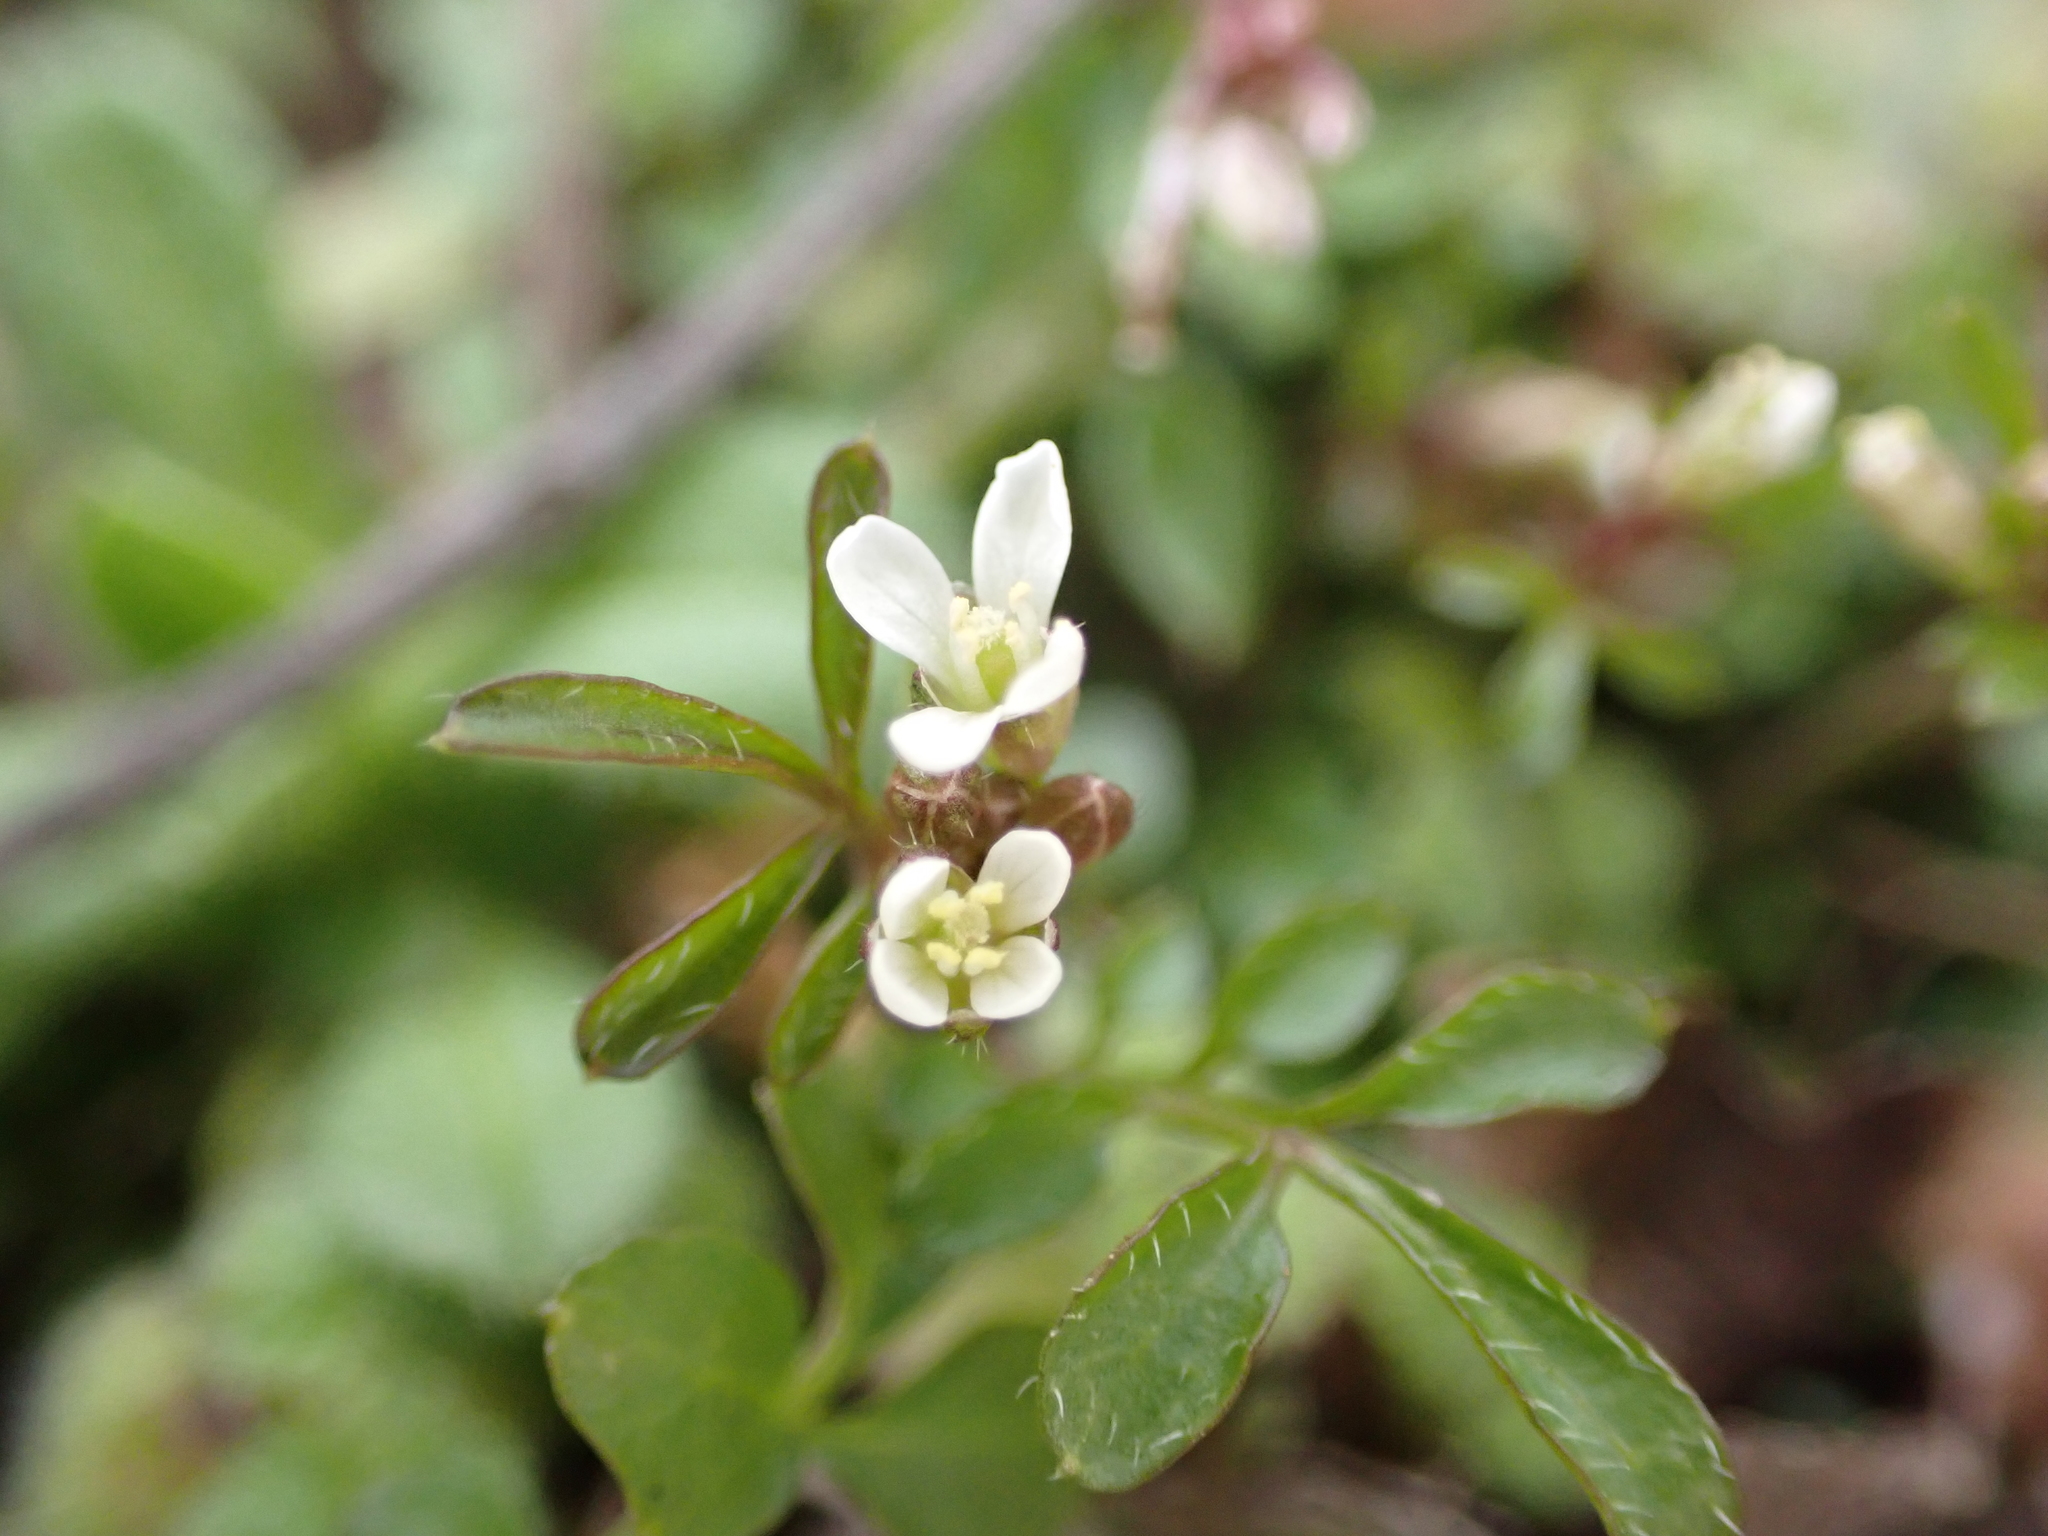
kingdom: Plantae
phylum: Tracheophyta
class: Magnoliopsida
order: Brassicales
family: Brassicaceae
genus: Cardamine
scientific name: Cardamine hirsuta
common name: Hairy bittercress
